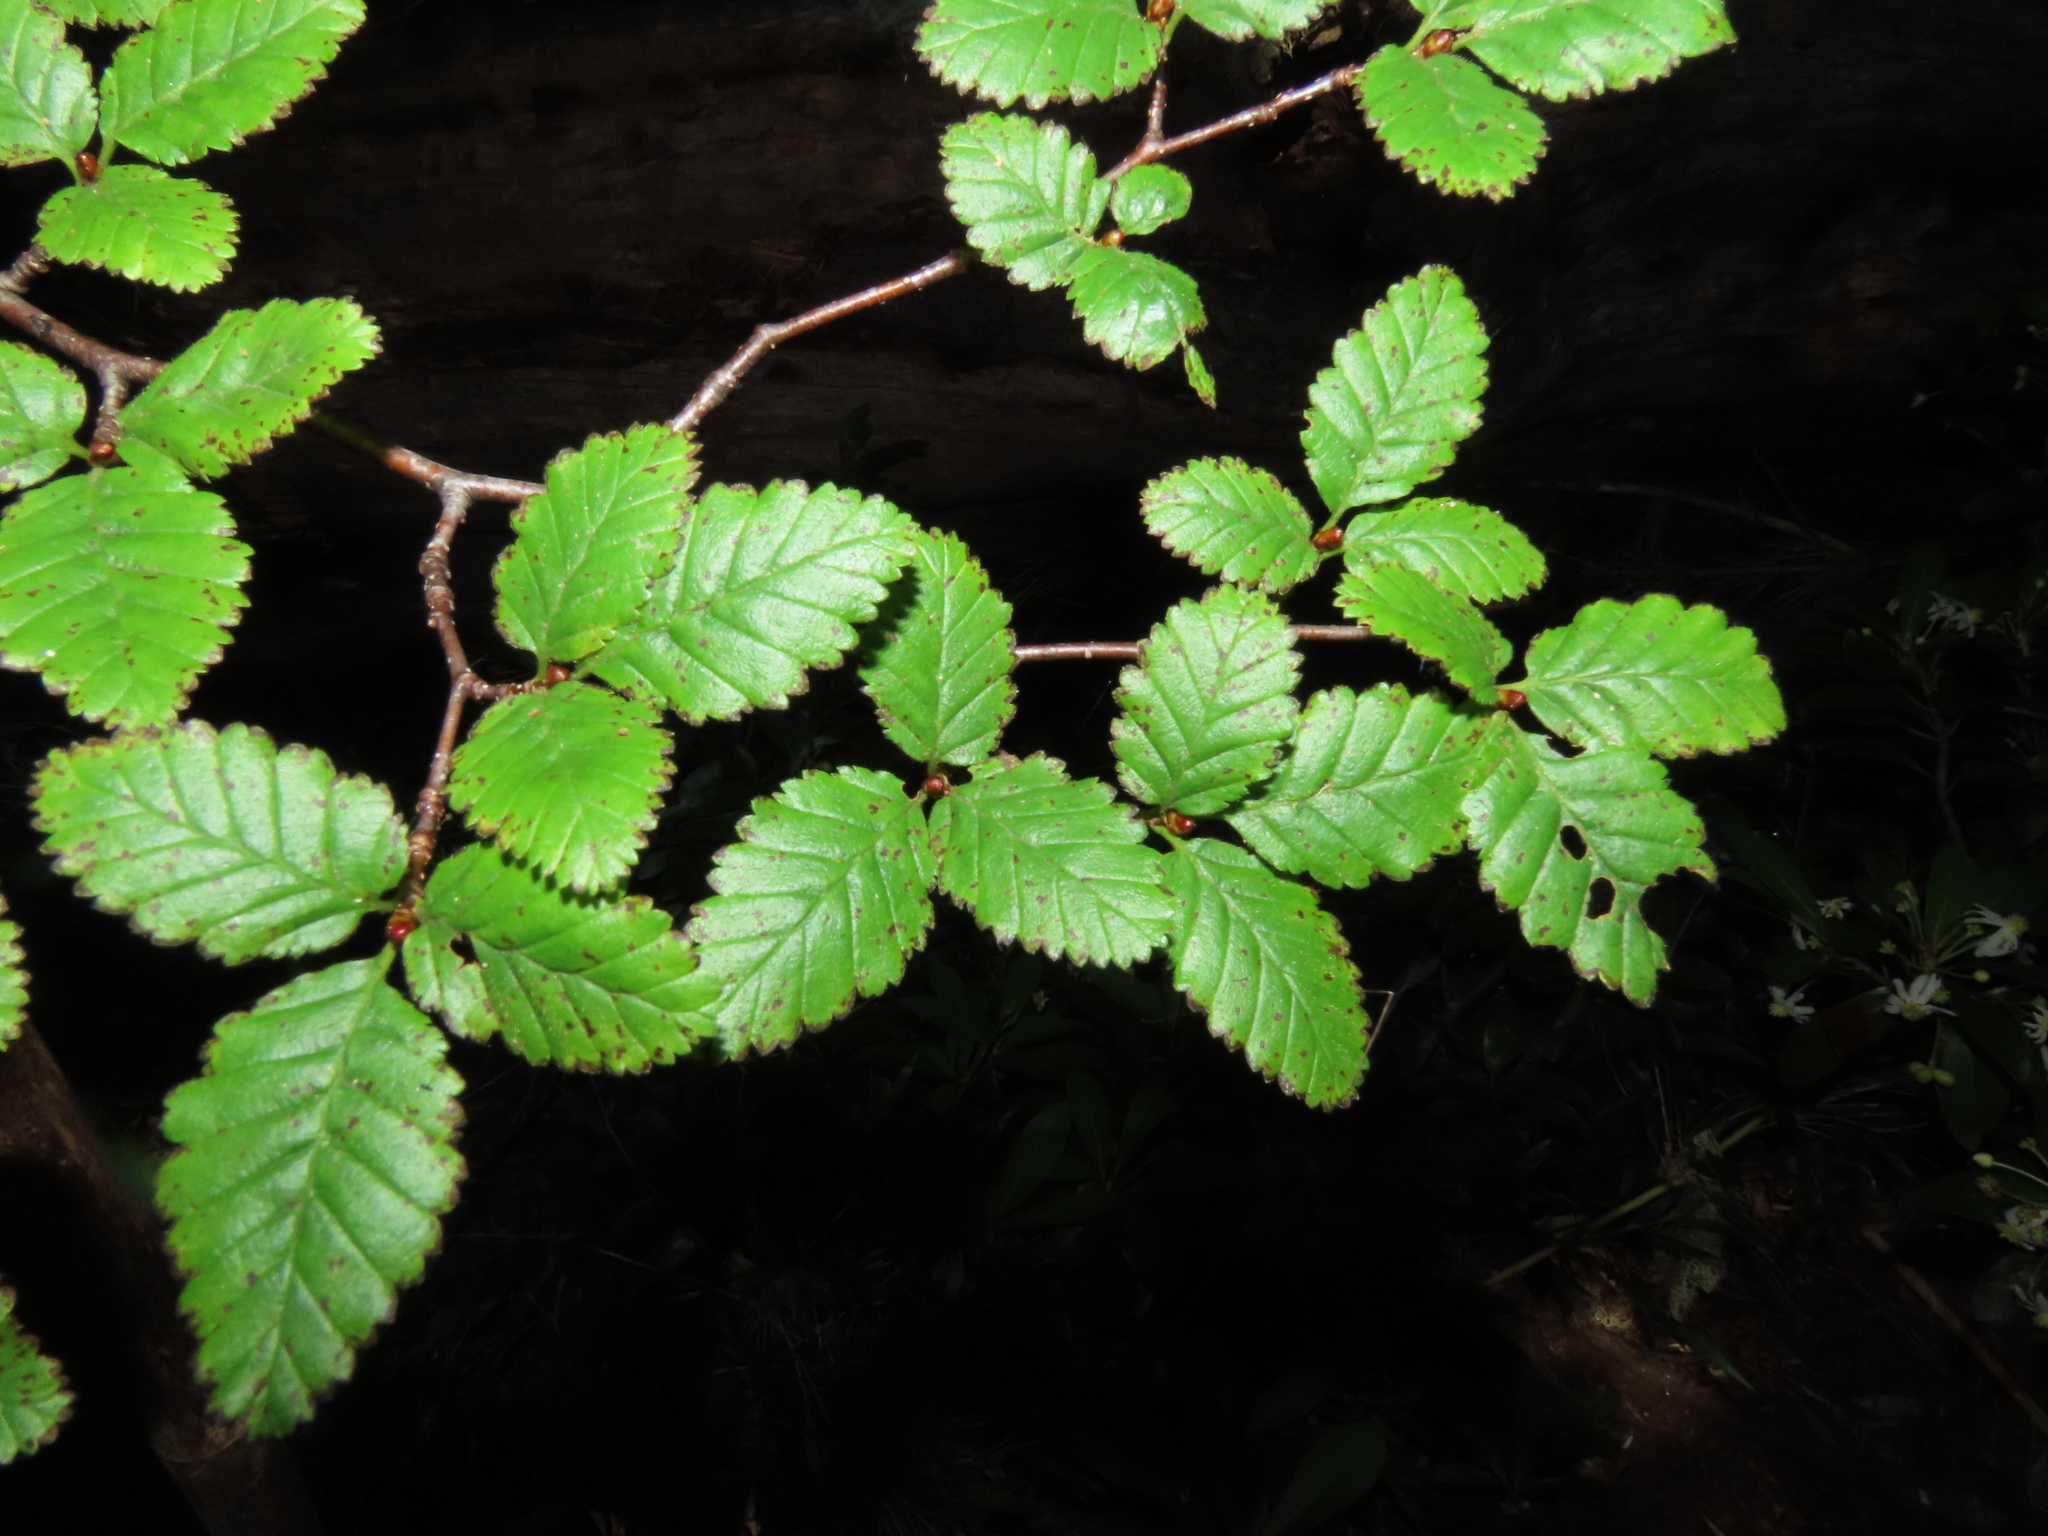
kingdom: Plantae
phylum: Tracheophyta
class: Magnoliopsida
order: Fagales
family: Nothofagaceae
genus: Nothofagus
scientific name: Nothofagus pumilio
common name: Lenga beech
